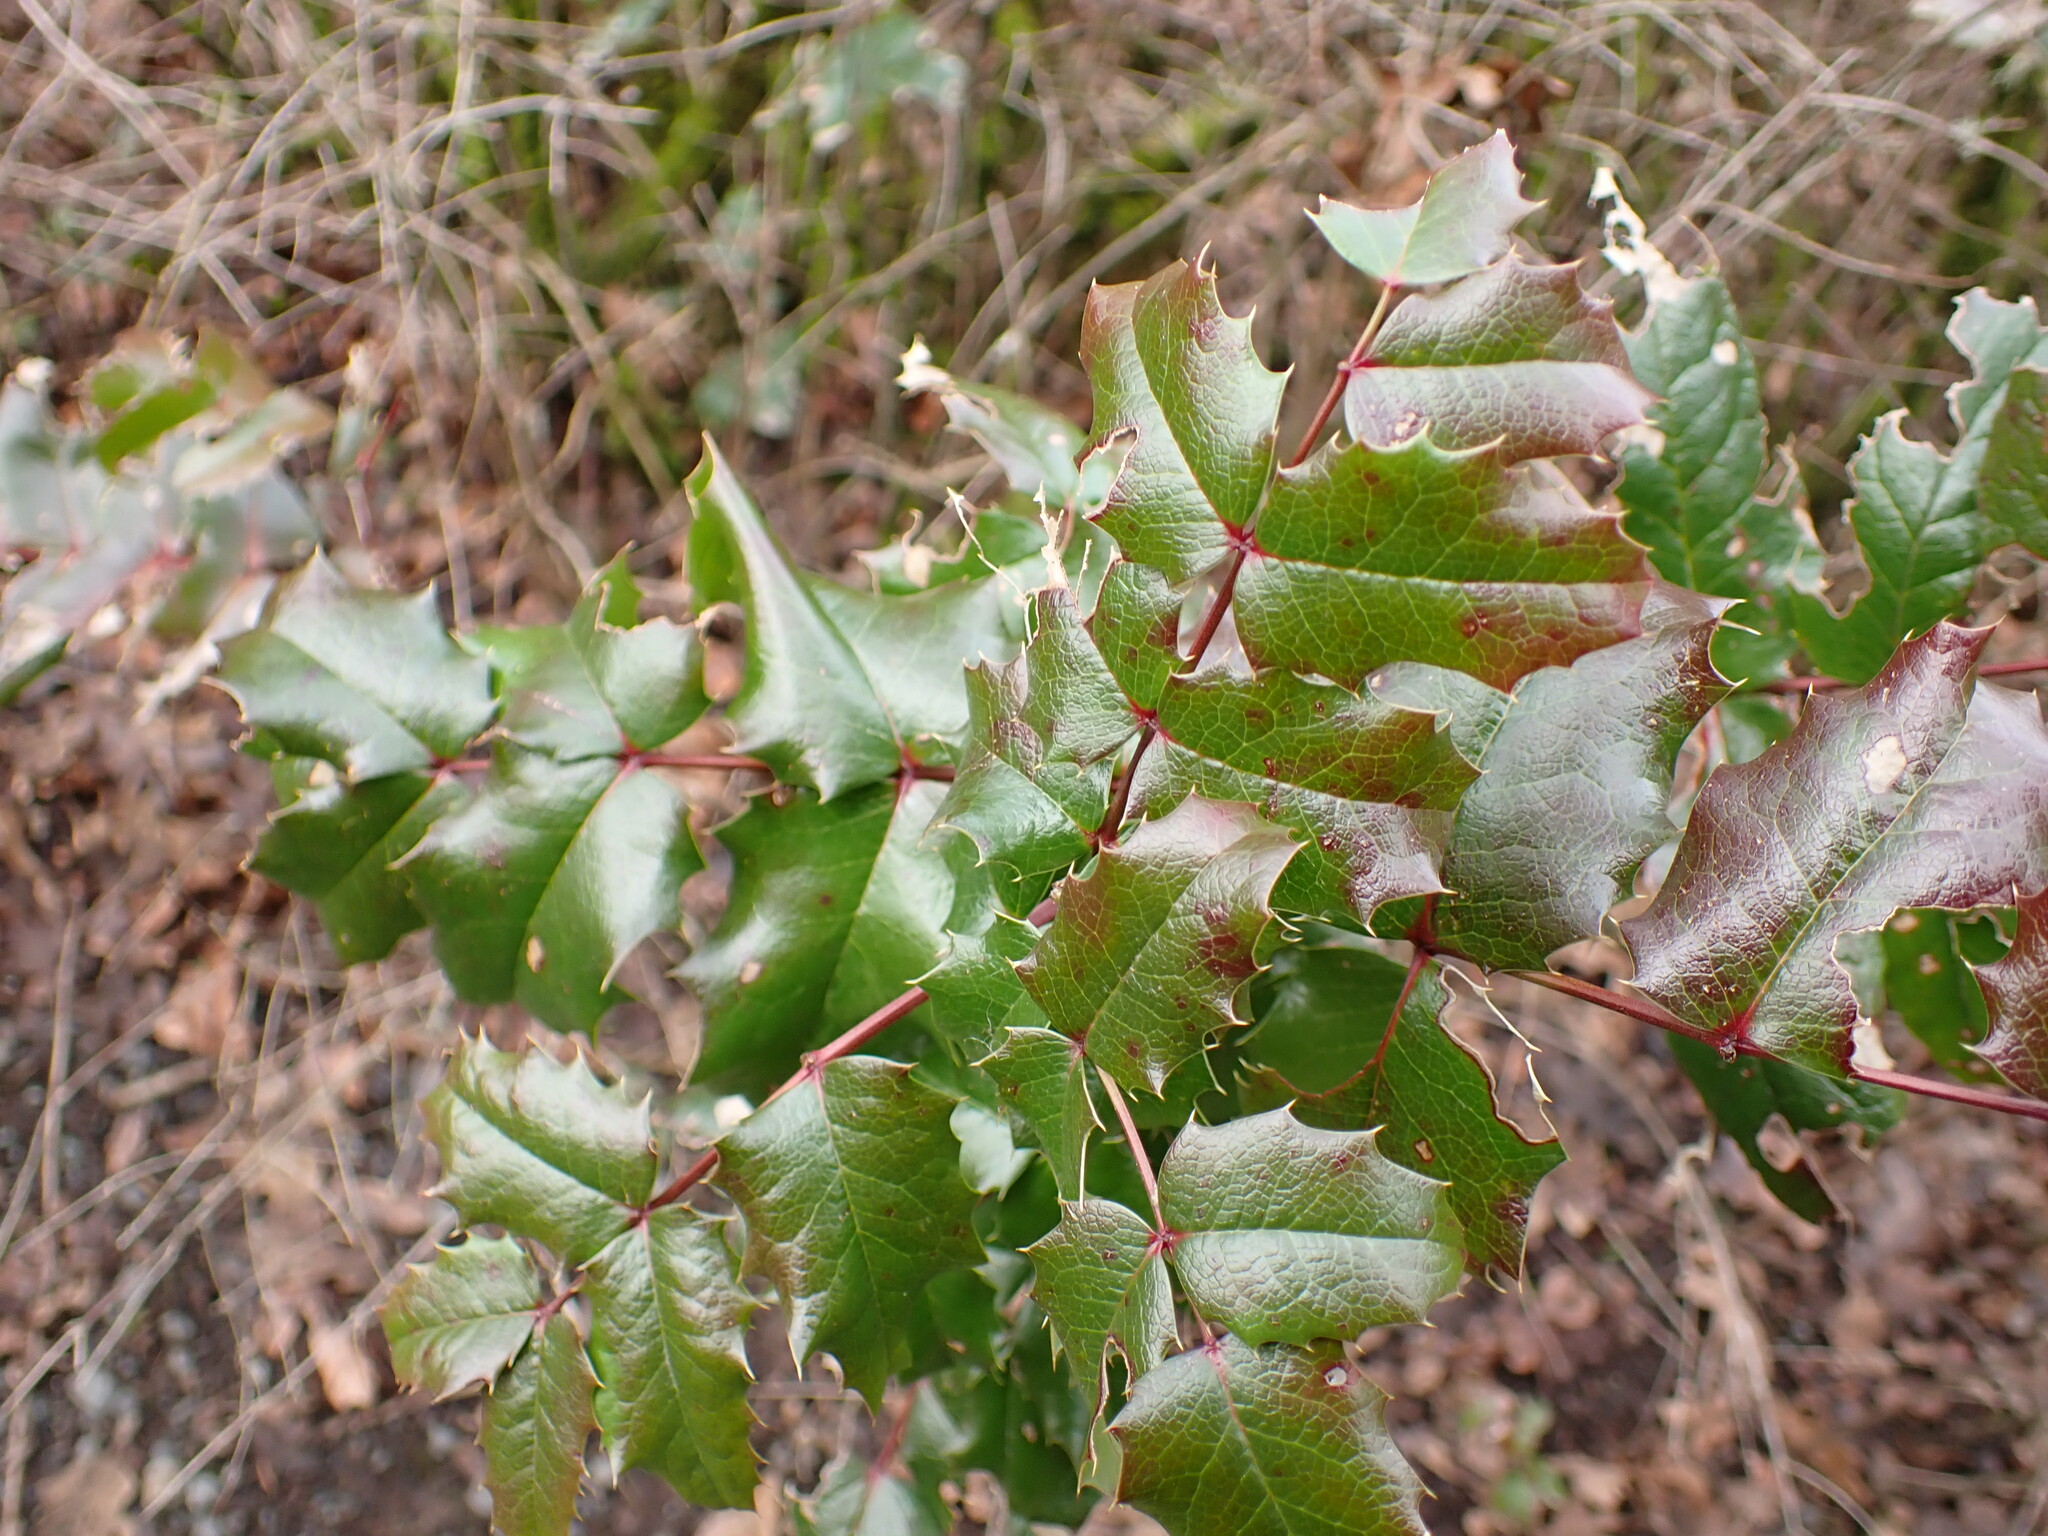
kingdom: Plantae
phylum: Tracheophyta
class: Magnoliopsida
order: Ranunculales
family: Berberidaceae
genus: Mahonia
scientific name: Mahonia aquifolium
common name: Oregon-grape
